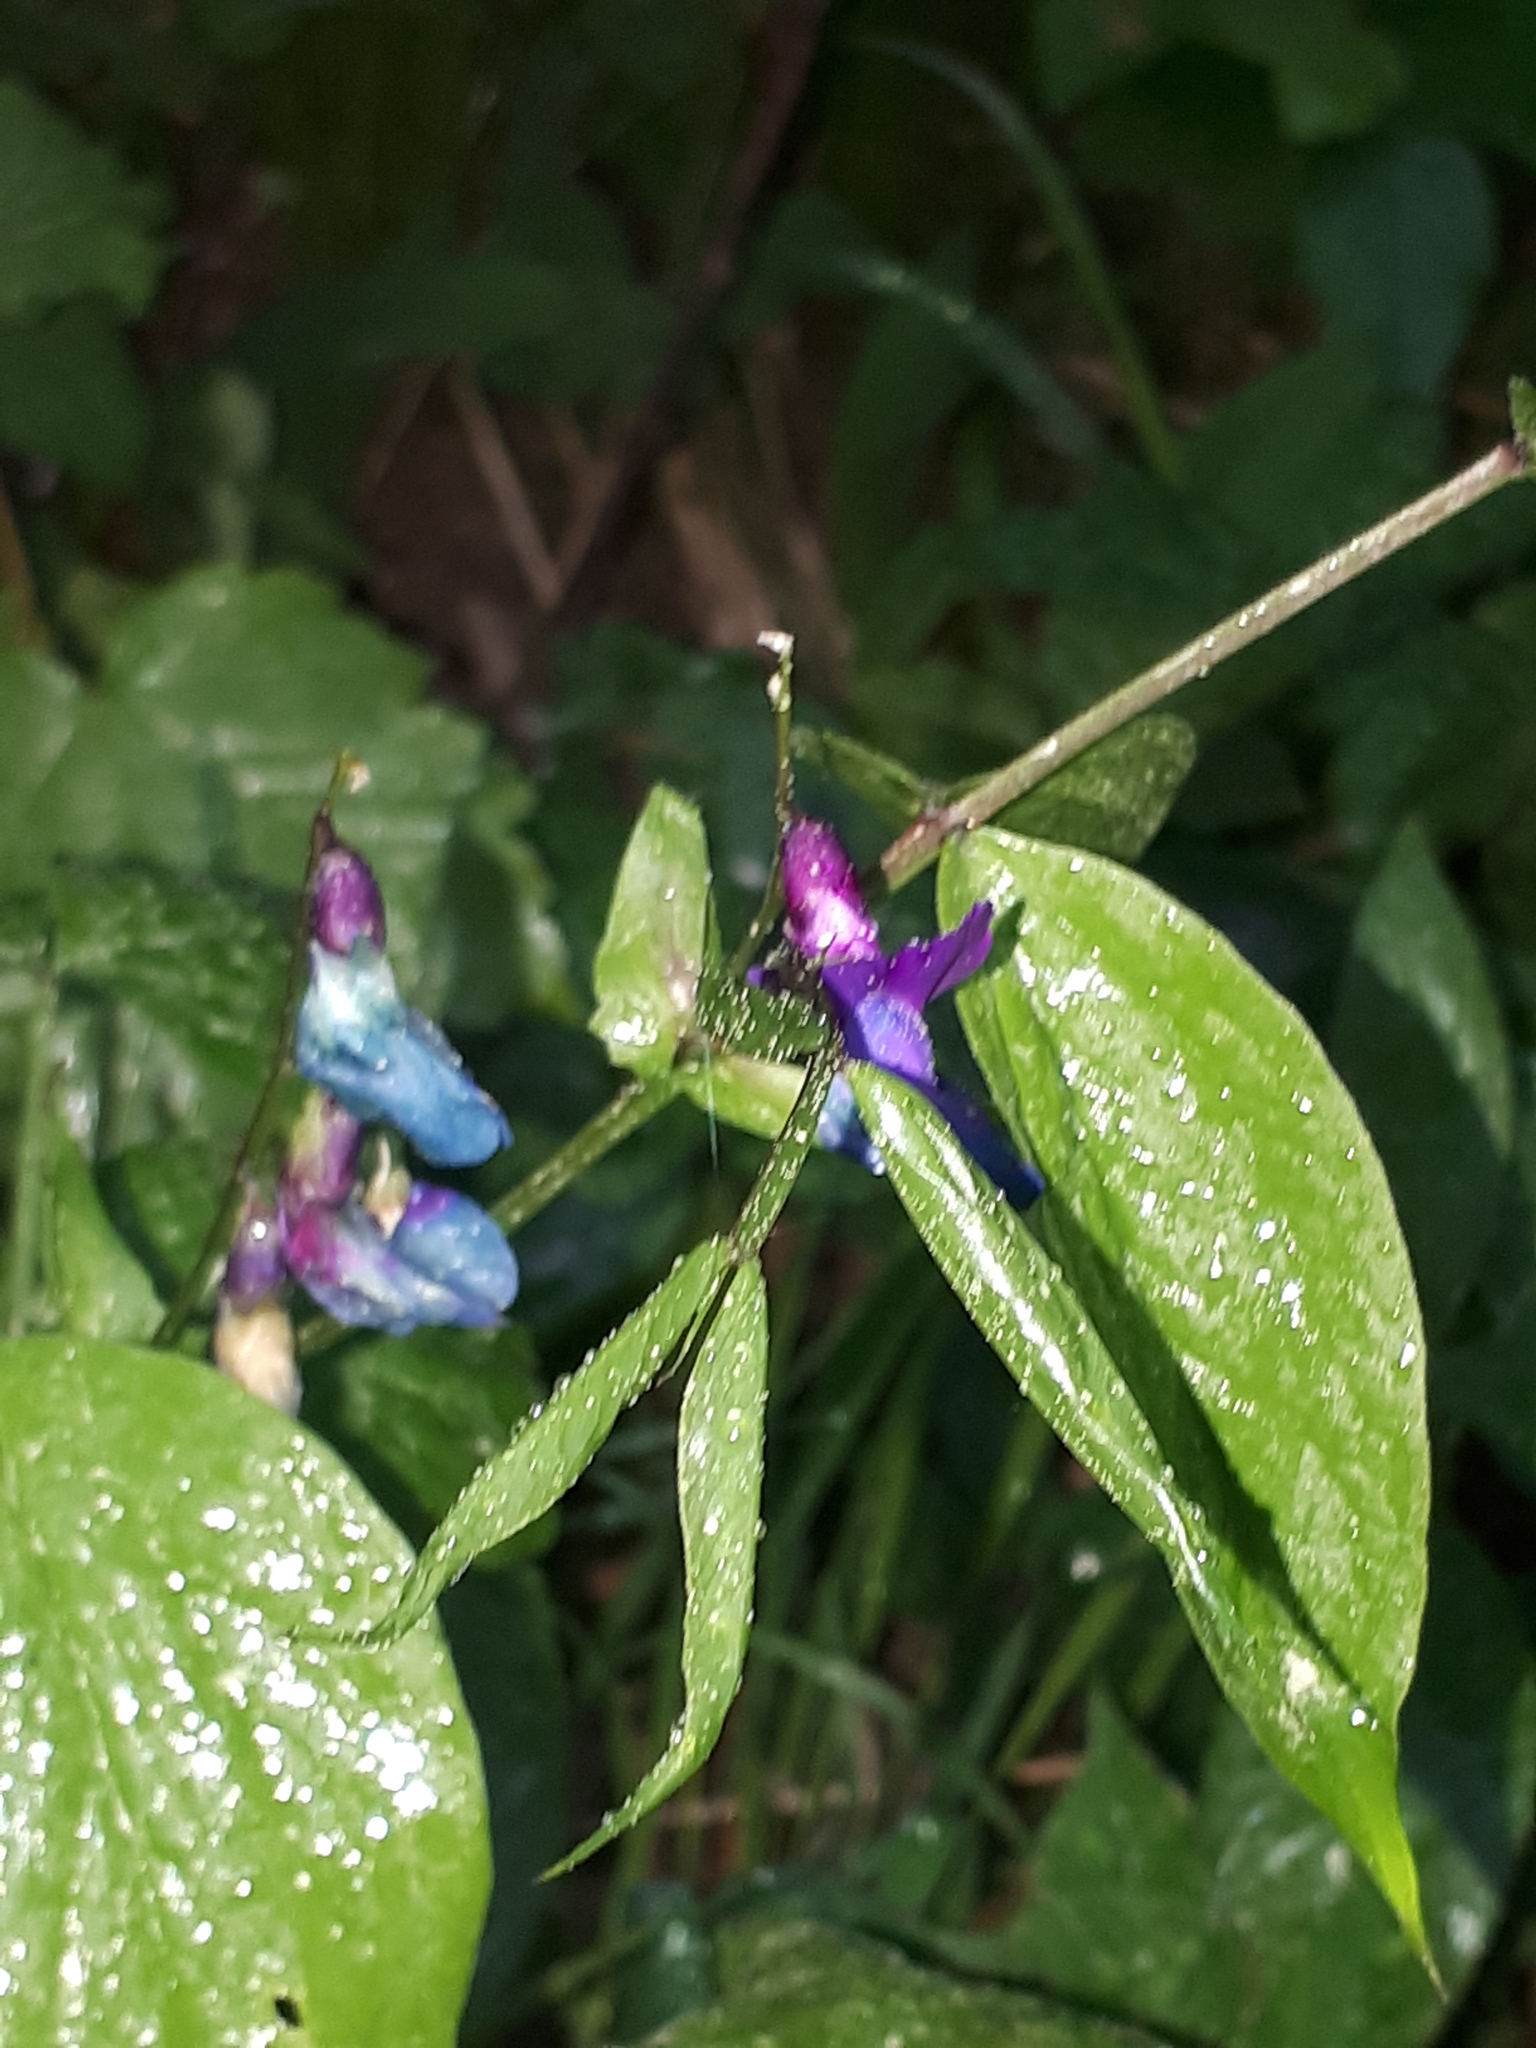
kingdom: Plantae
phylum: Tracheophyta
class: Magnoliopsida
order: Fabales
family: Fabaceae
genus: Lathyrus
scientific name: Lathyrus vernus
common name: Spring pea
